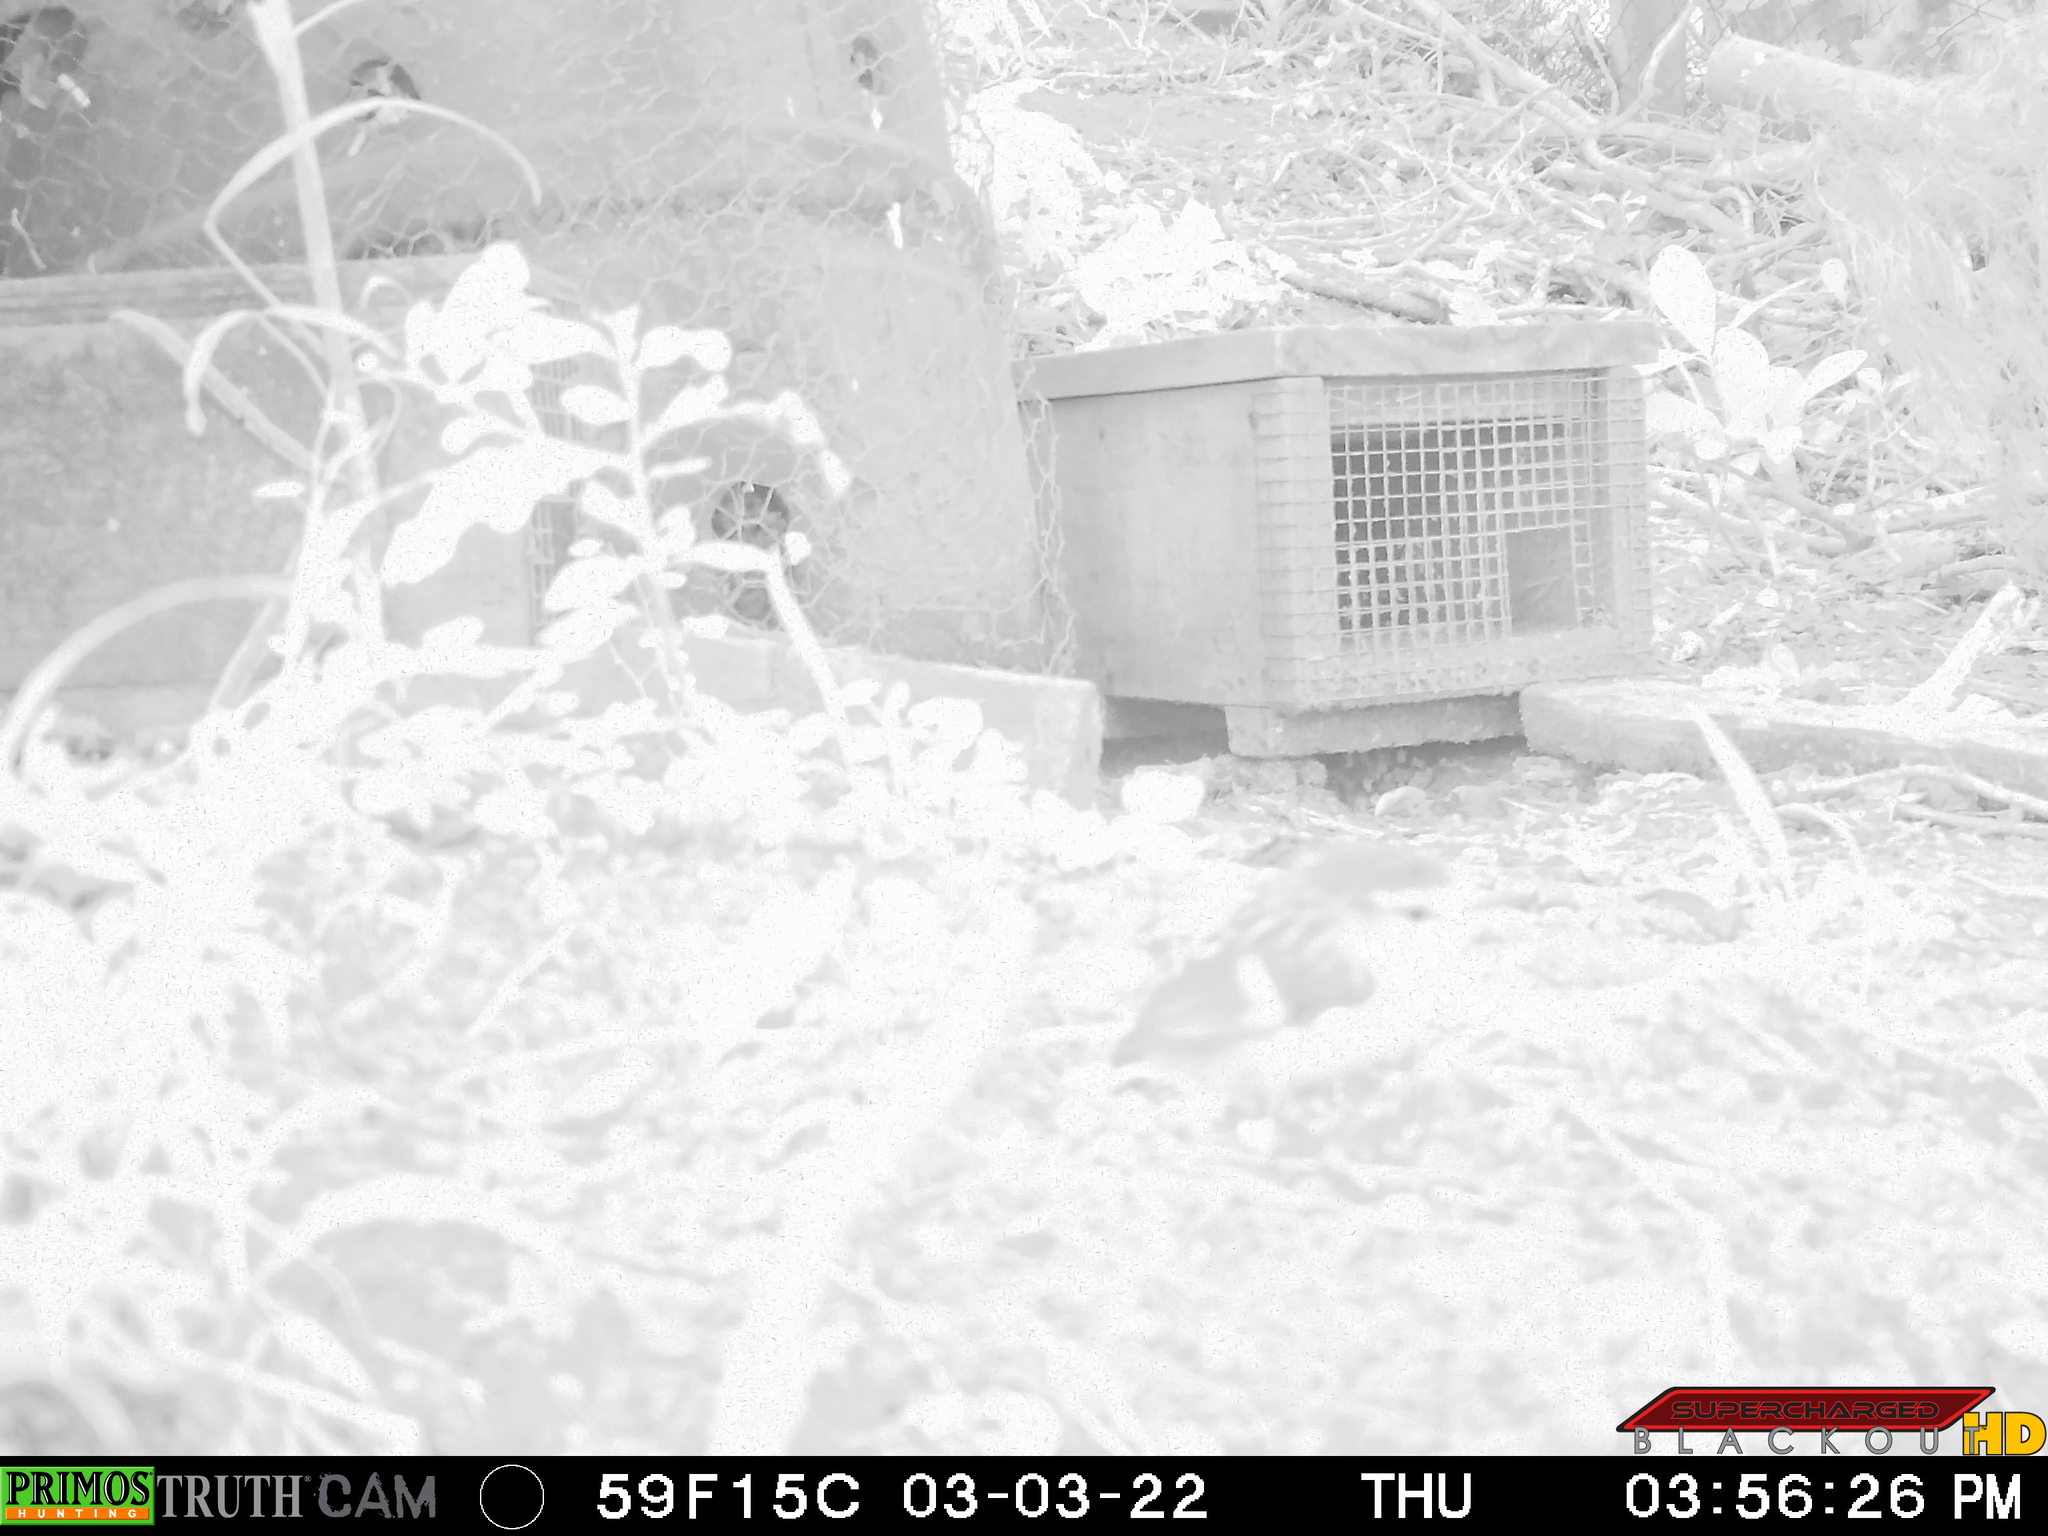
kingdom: Animalia
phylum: Chordata
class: Aves
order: Passeriformes
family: Acanthisittidae
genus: Acanthisitta
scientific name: Acanthisitta chloris
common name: Rifleman
